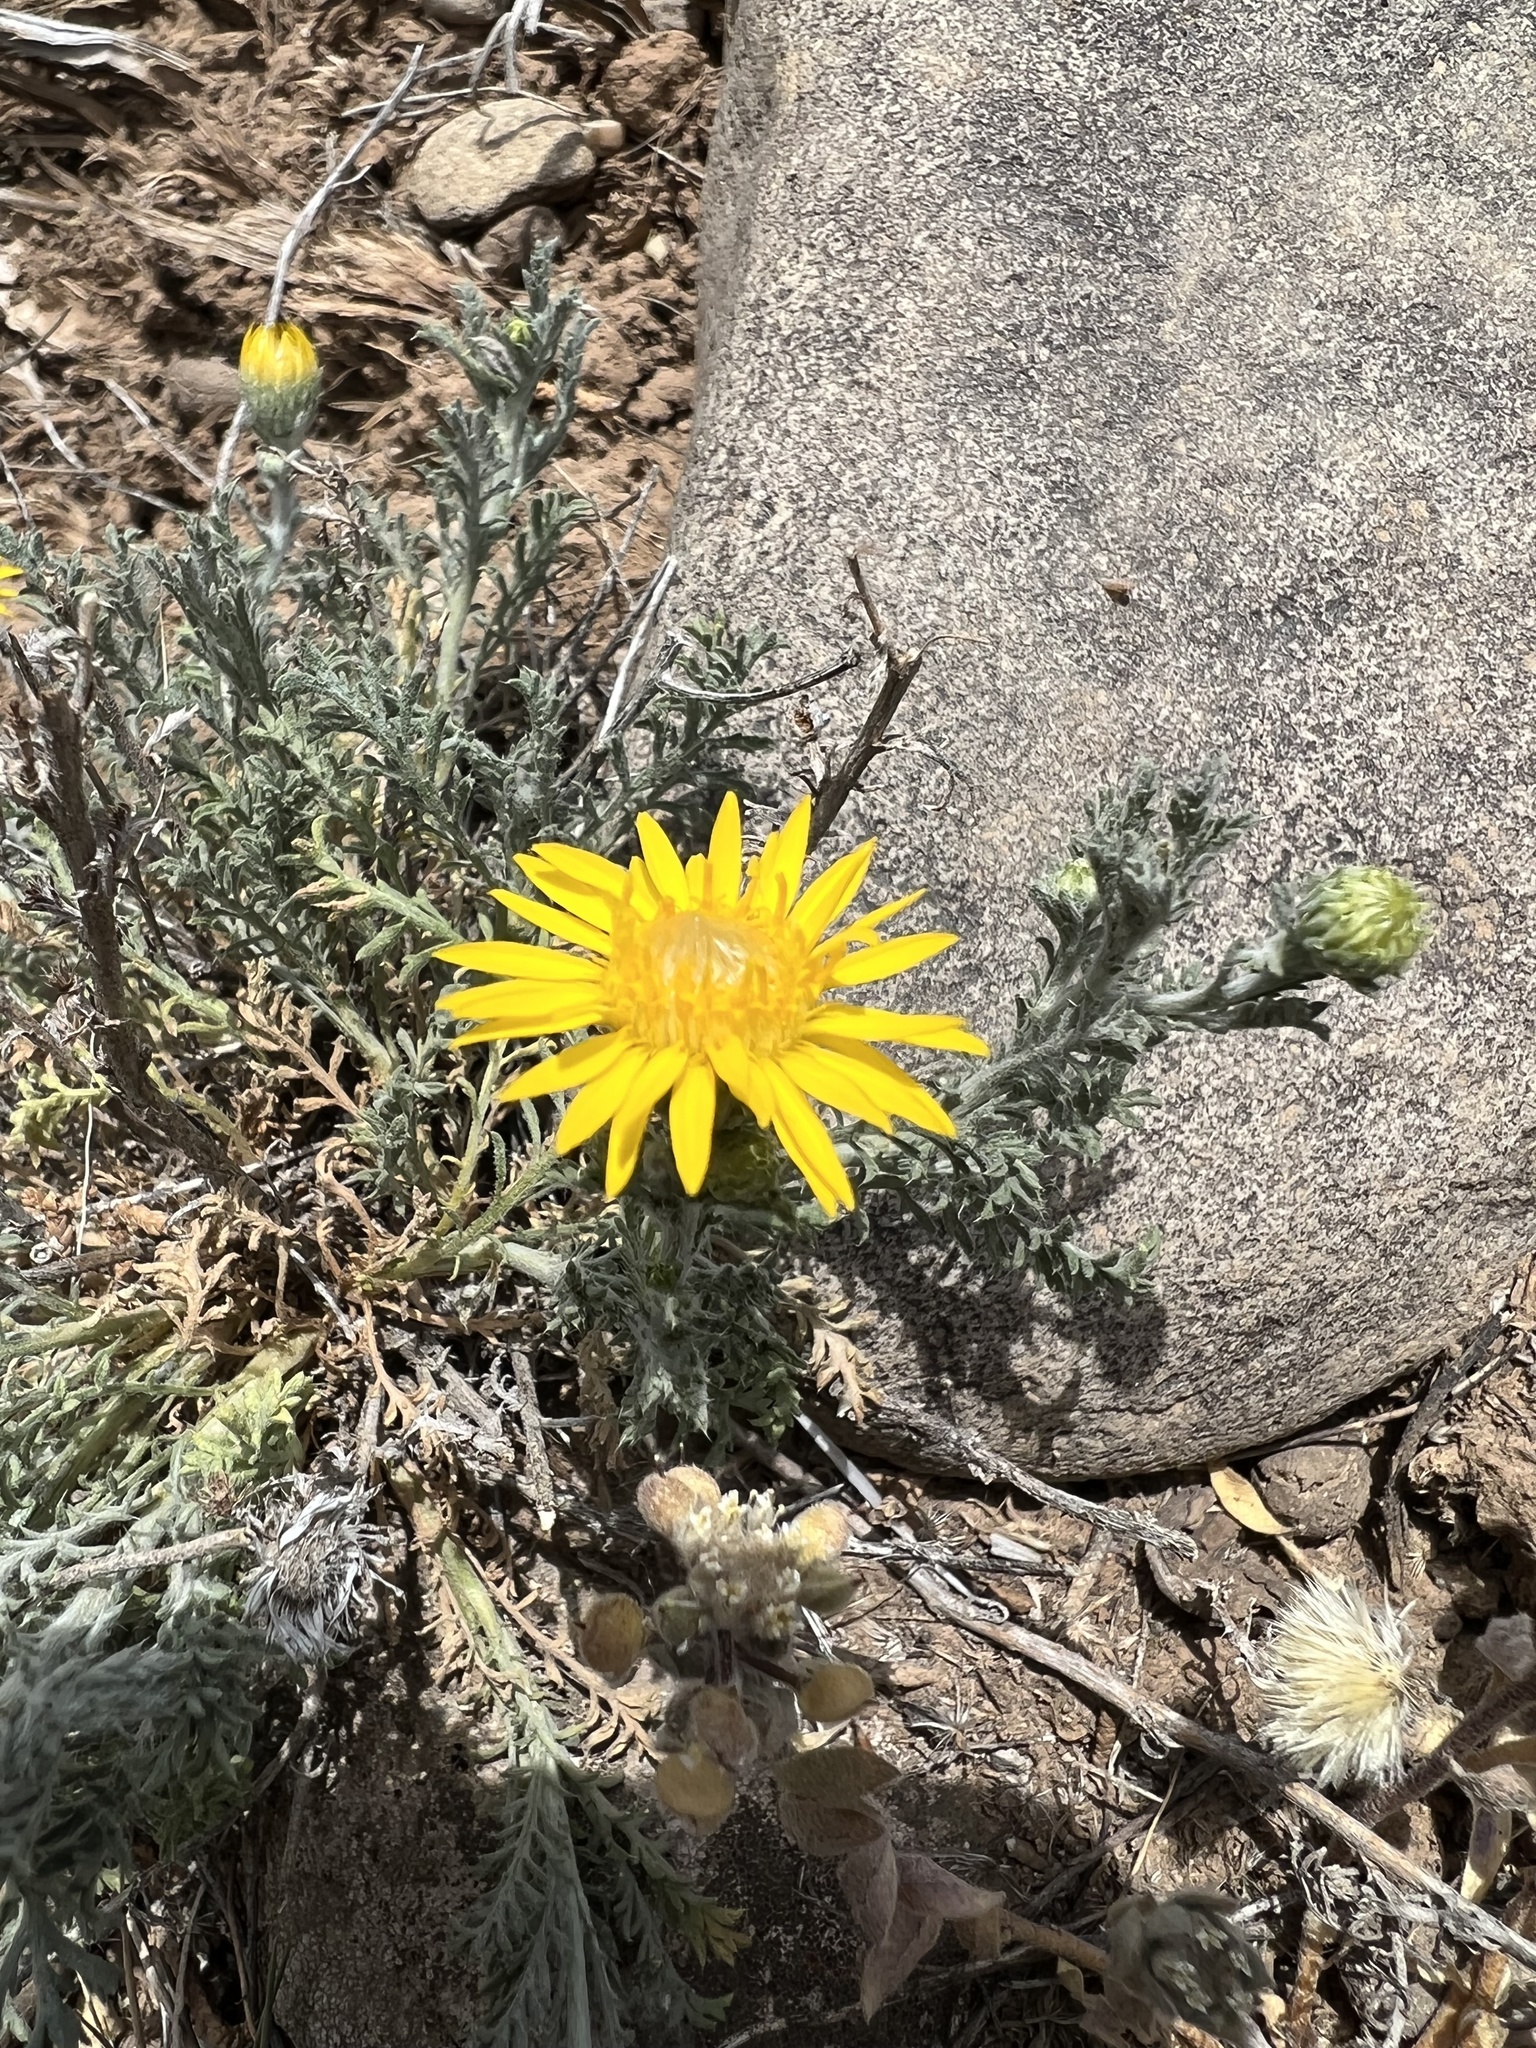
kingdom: Plantae
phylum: Tracheophyta
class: Magnoliopsida
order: Asterales
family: Asteraceae
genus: Xanthisma
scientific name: Xanthisma spinulosum
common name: Spiny goldenweed
